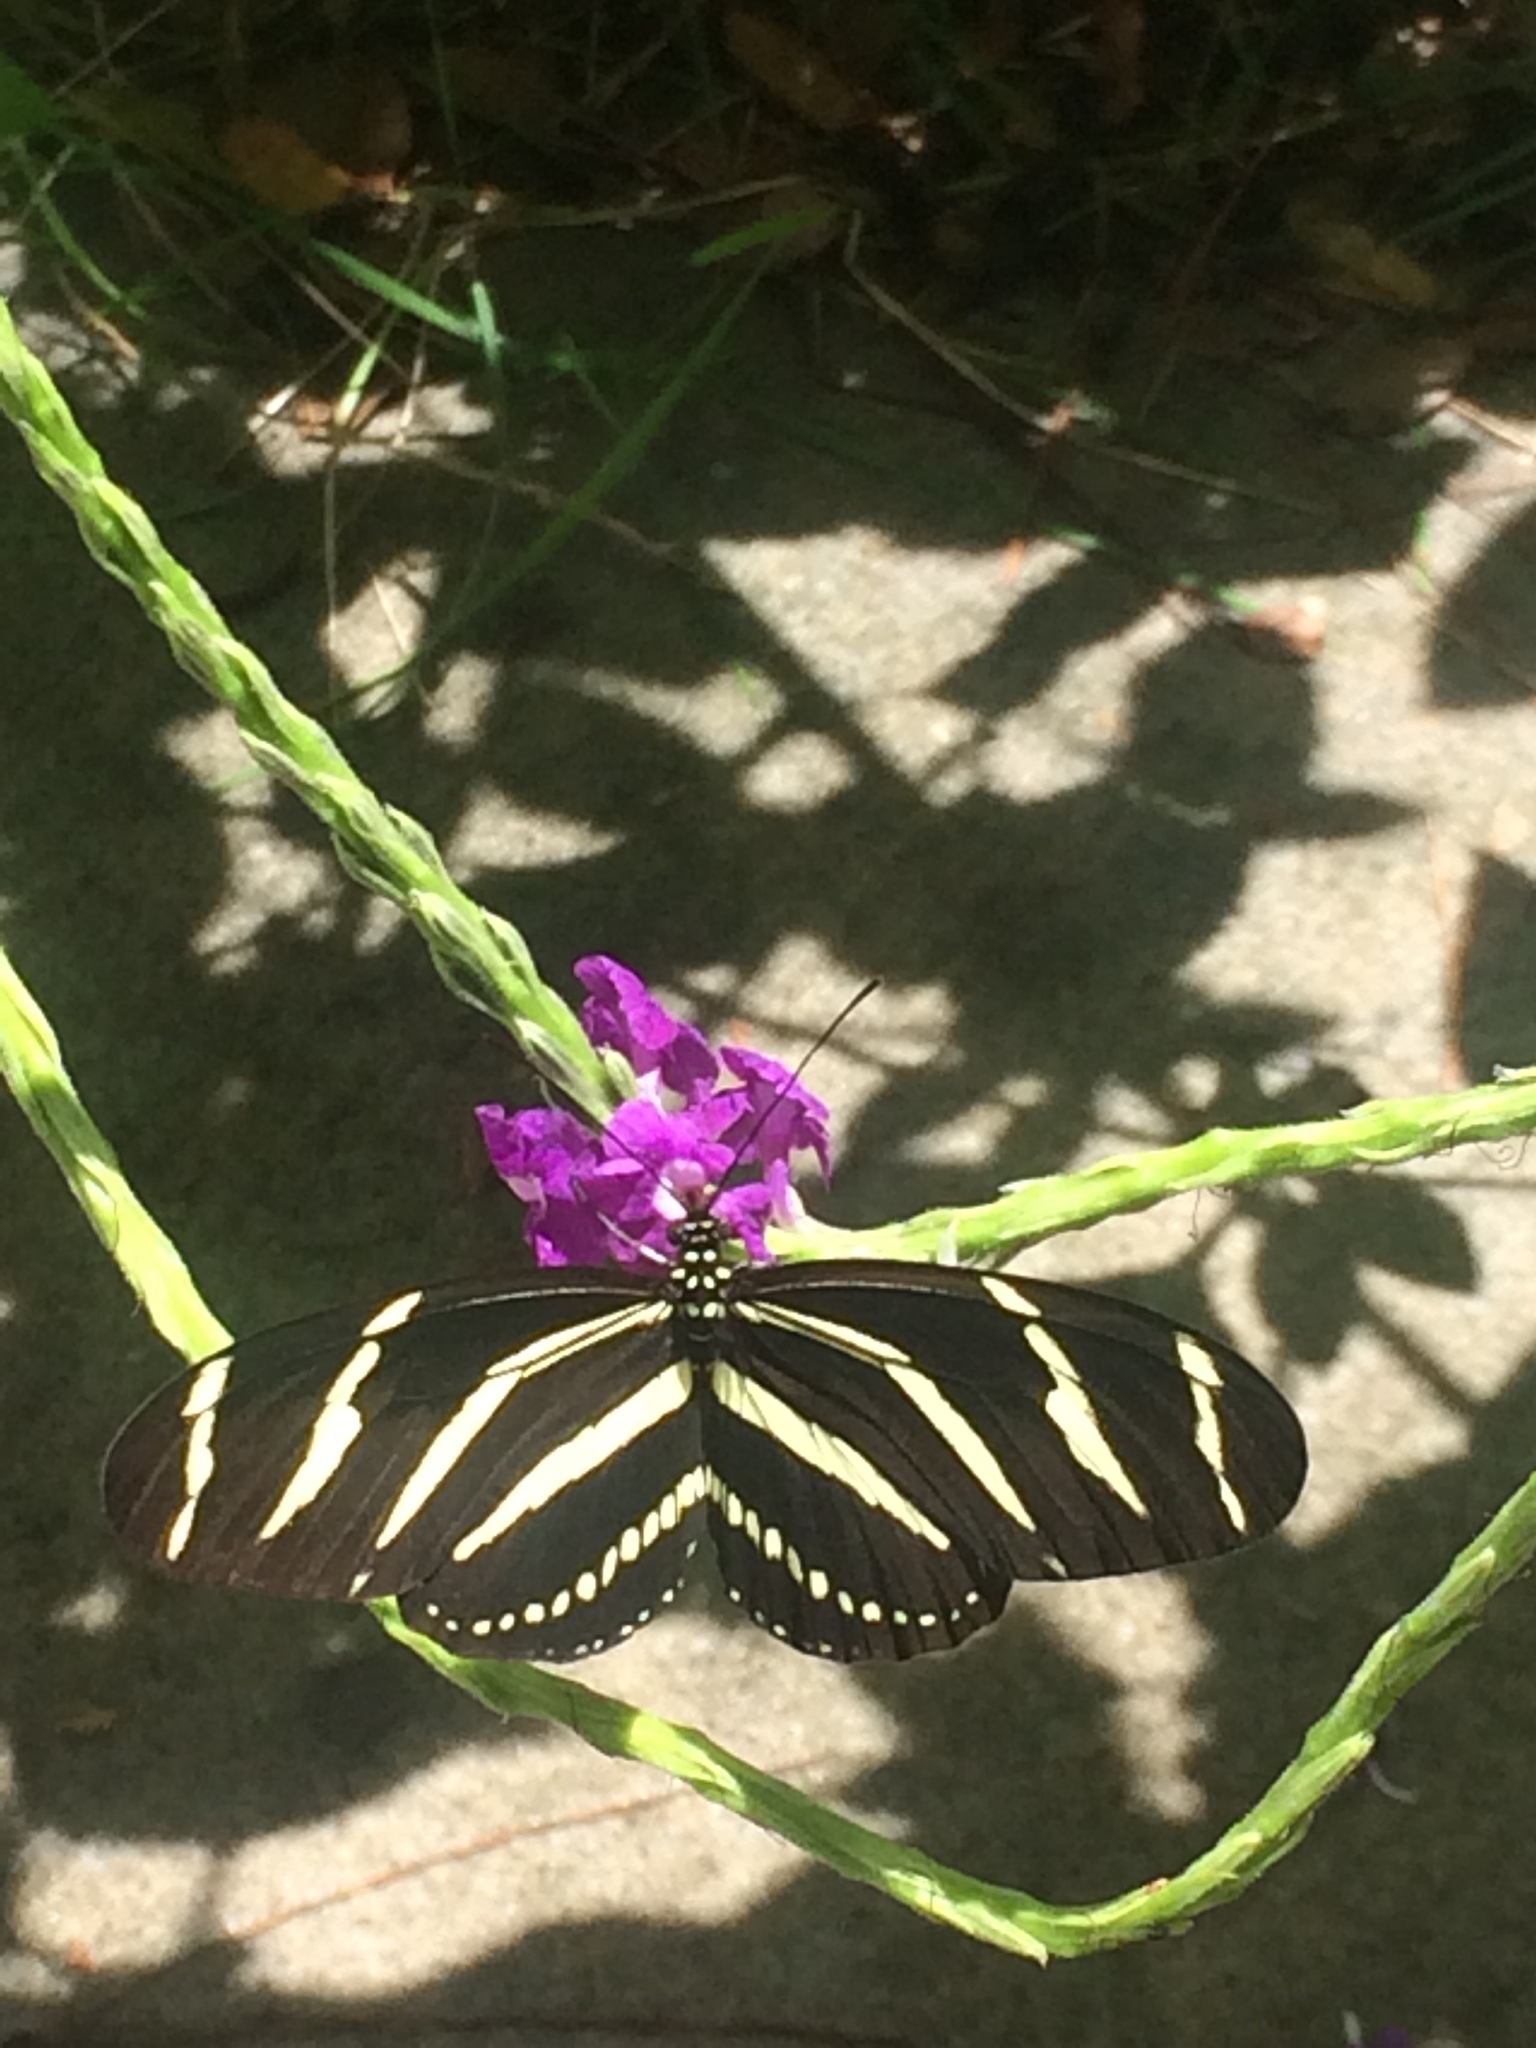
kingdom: Animalia
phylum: Arthropoda
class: Insecta
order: Lepidoptera
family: Nymphalidae
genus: Heliconius
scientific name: Heliconius charithonia
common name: Zebra long wing
